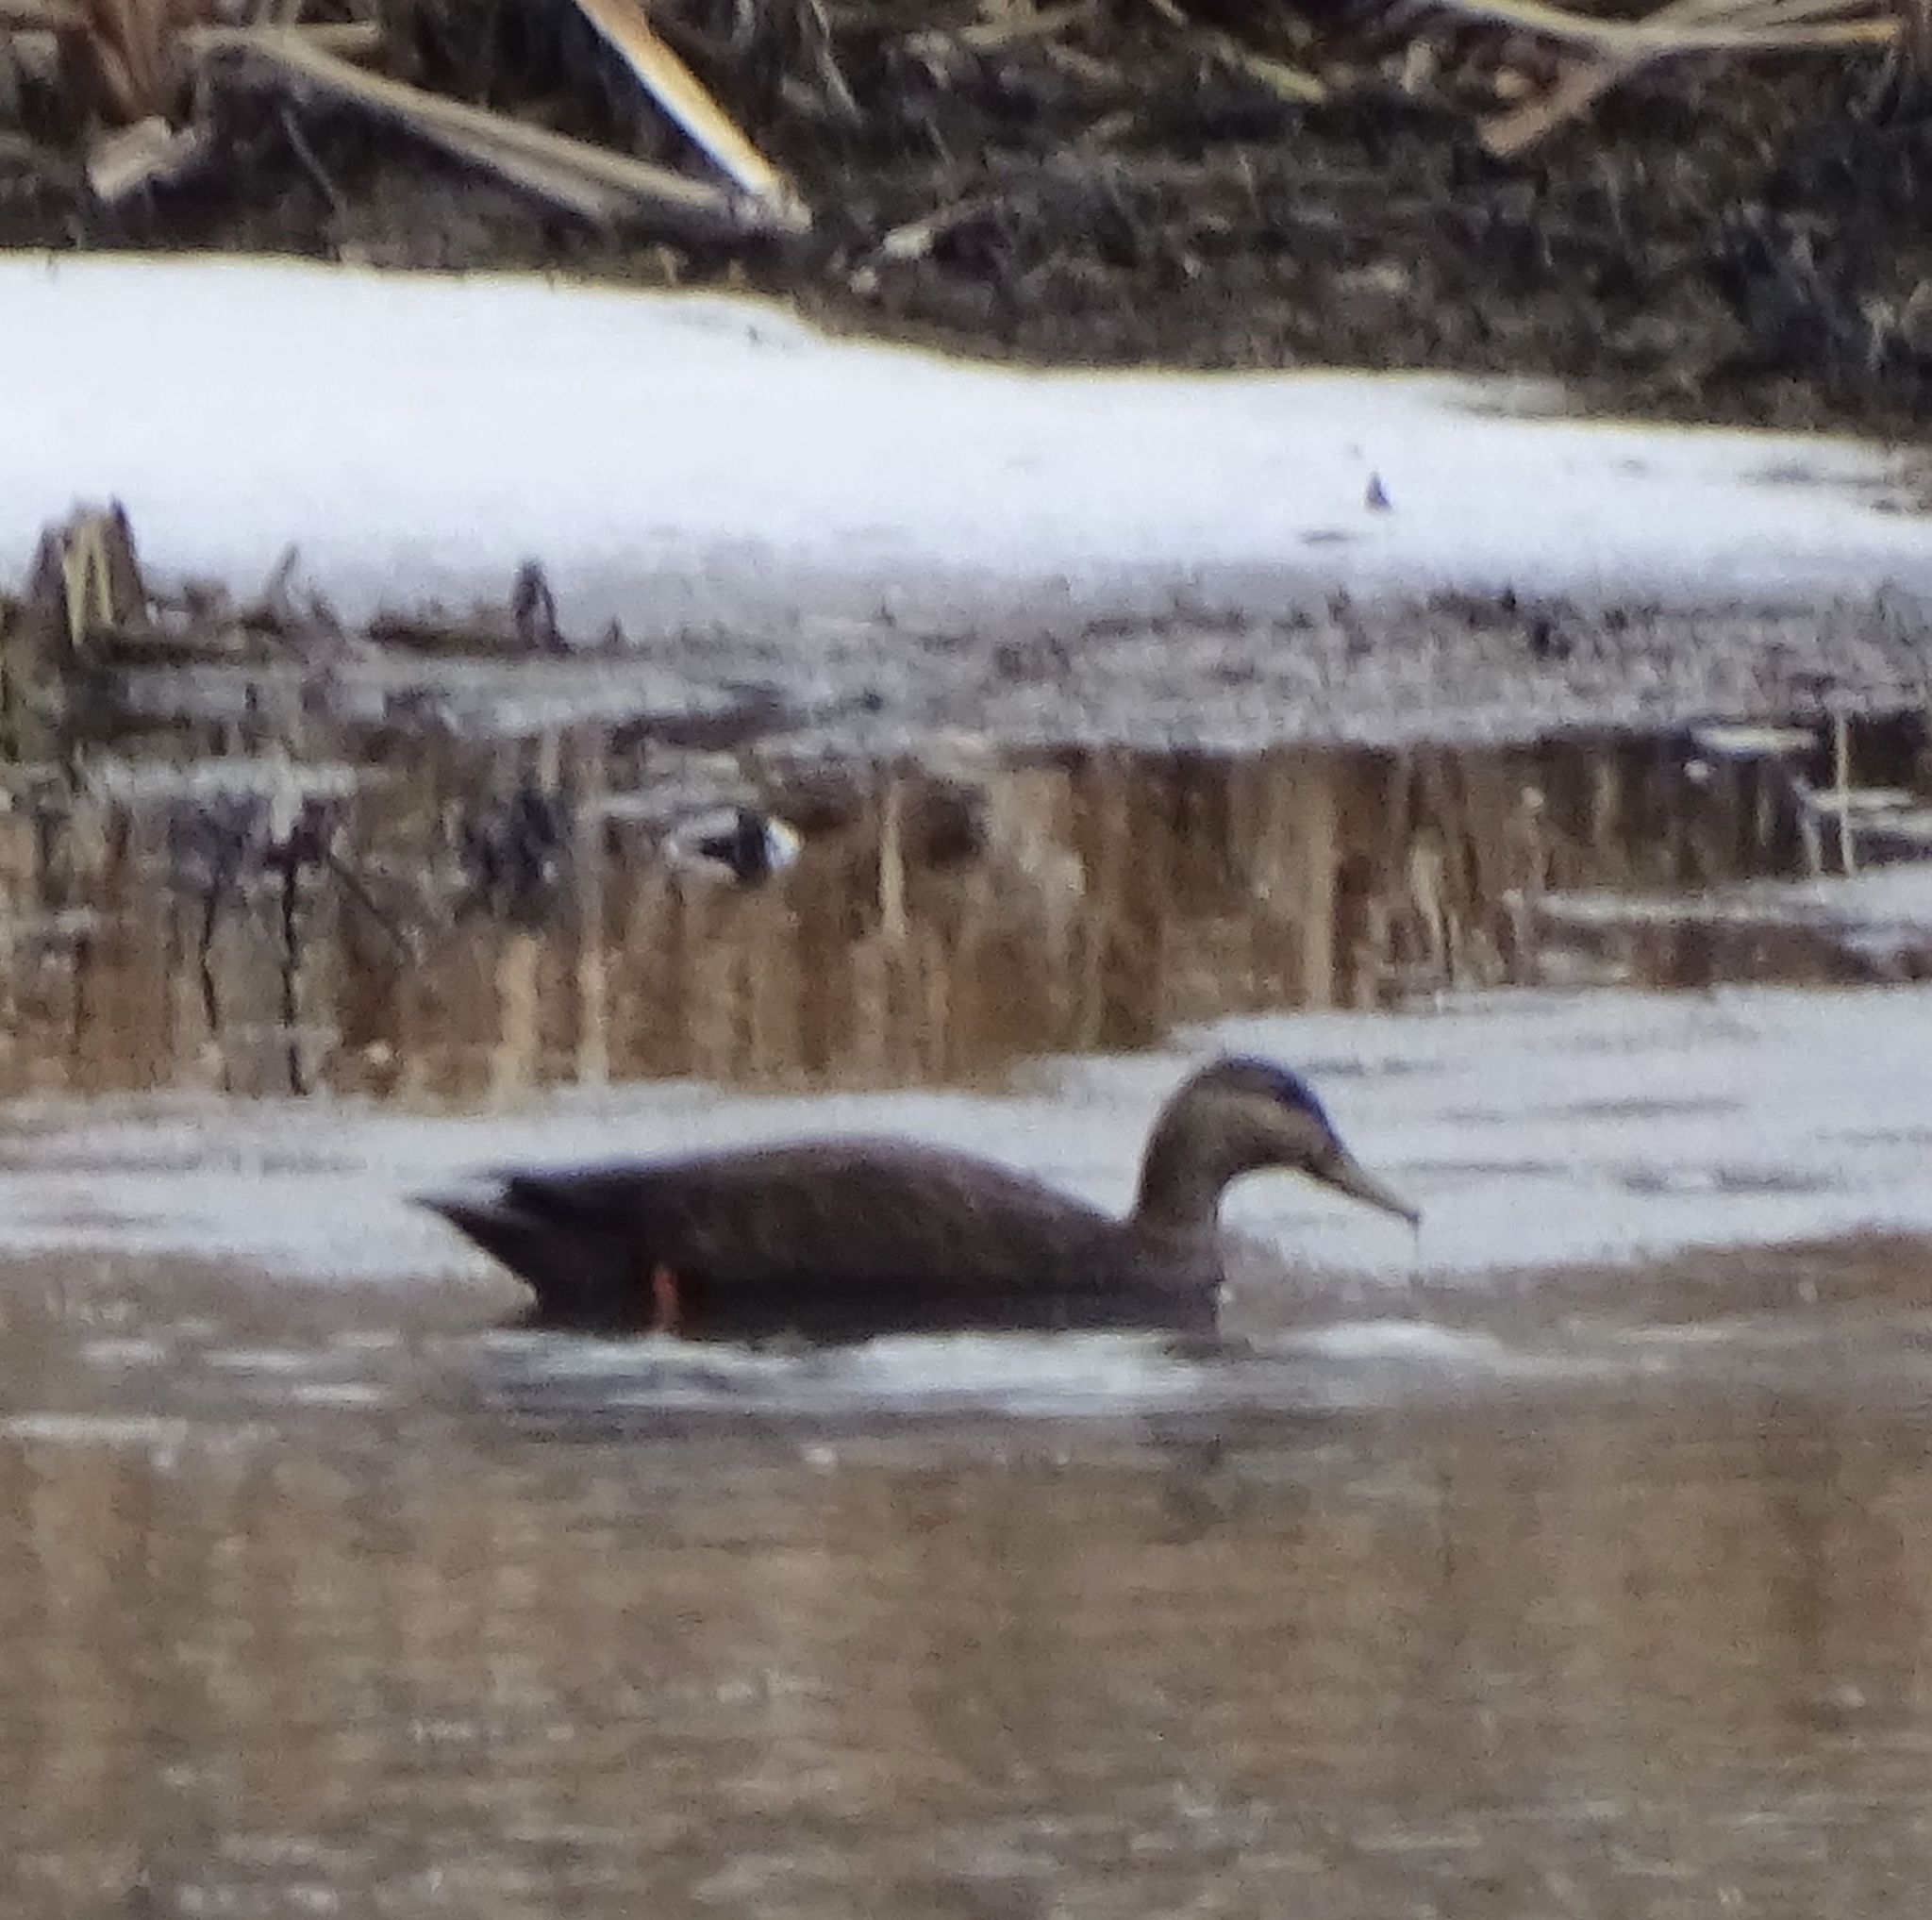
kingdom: Animalia
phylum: Chordata
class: Aves
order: Anseriformes
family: Anatidae
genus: Anas
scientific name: Anas rubripes
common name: American black duck
